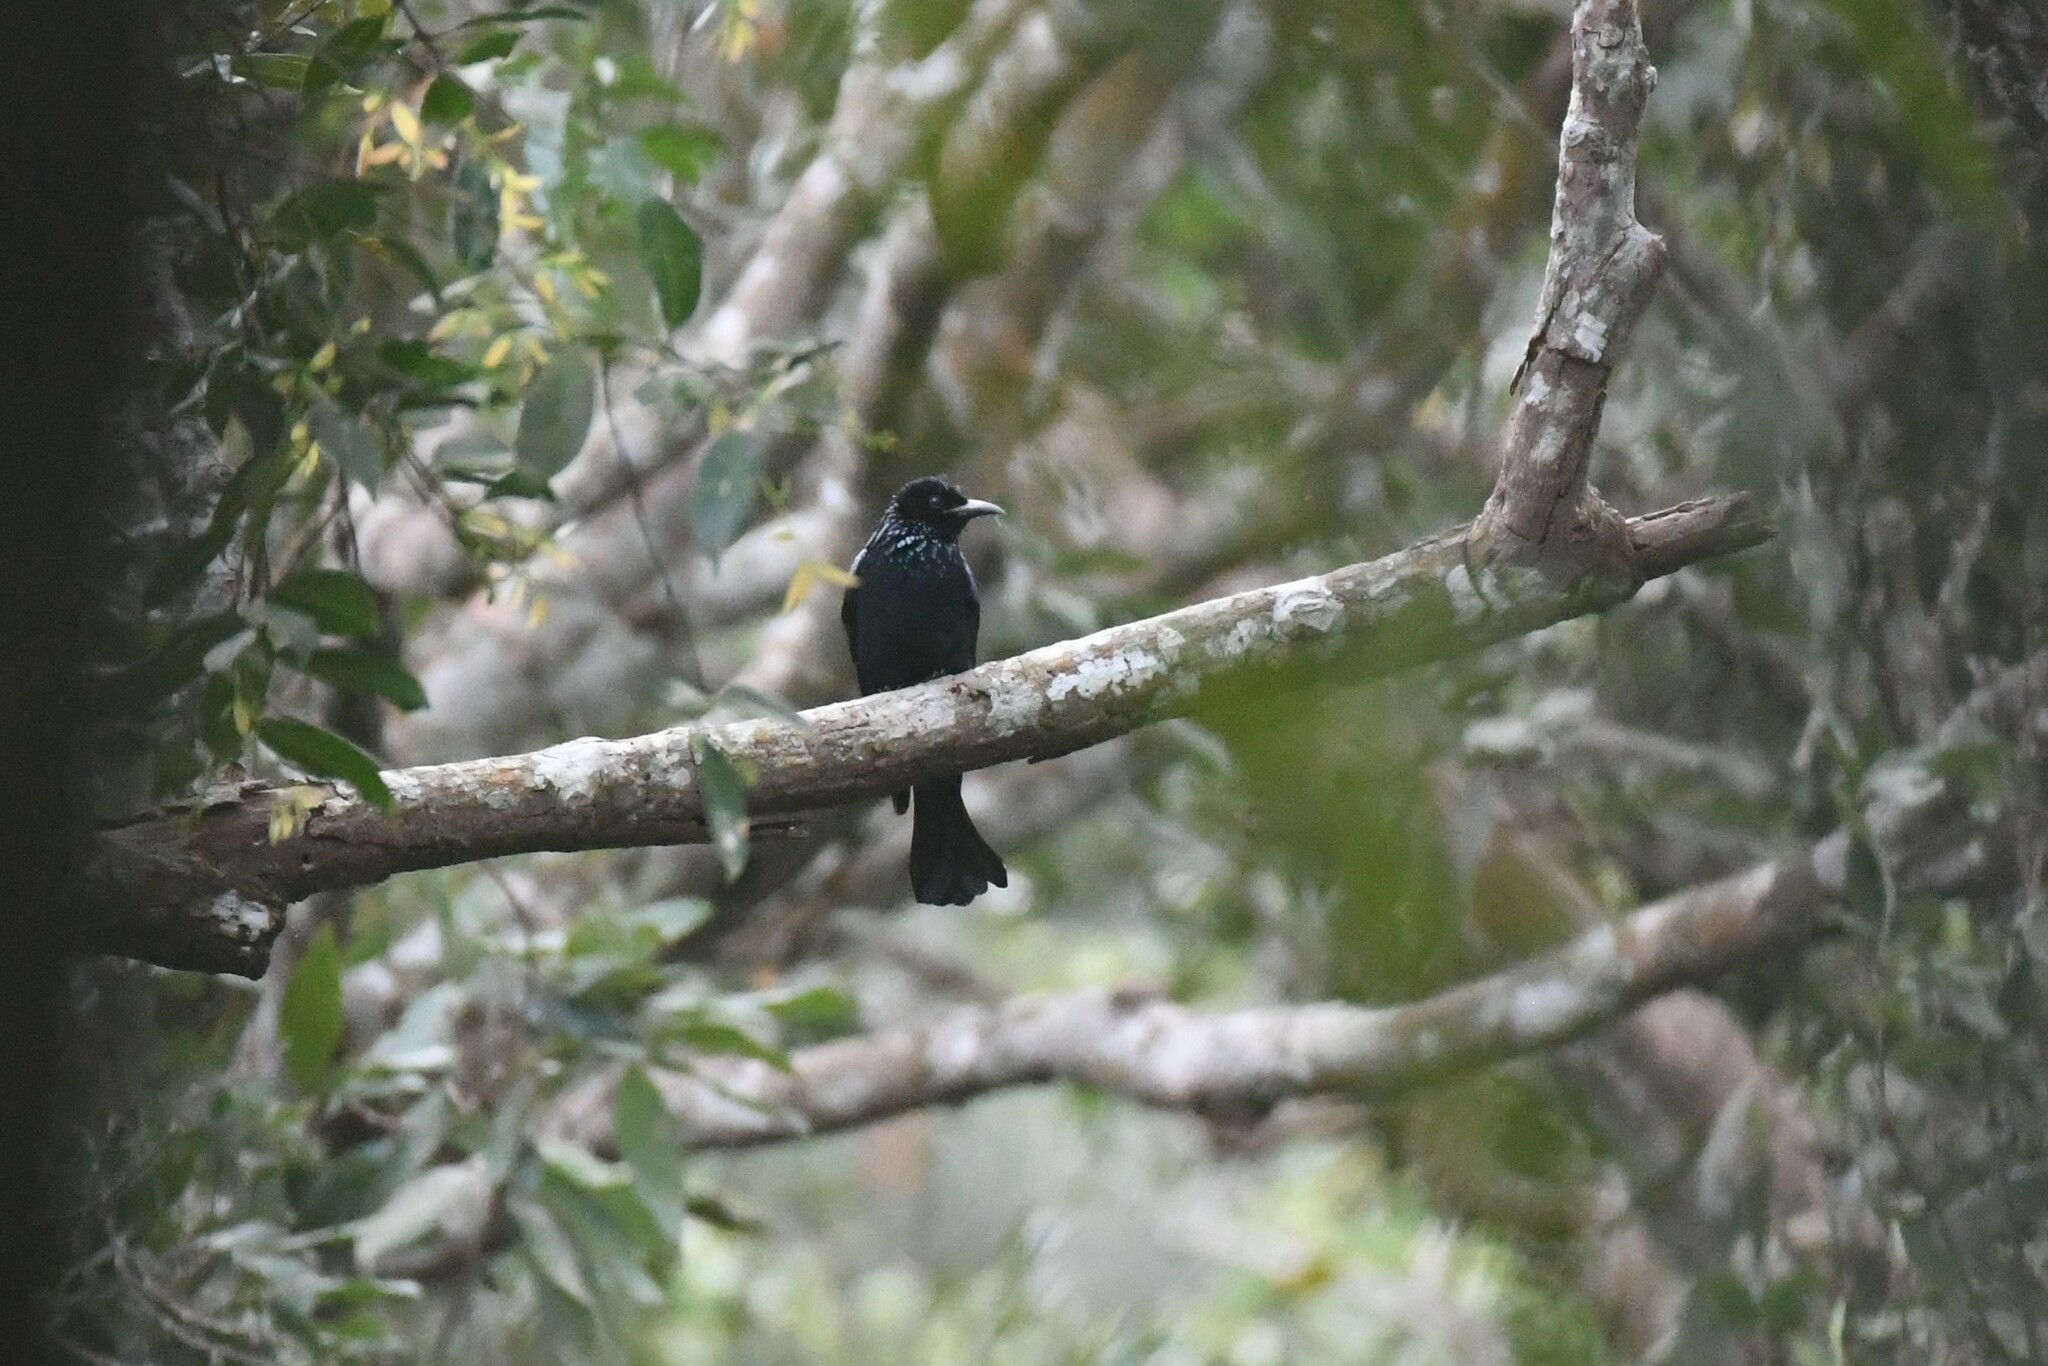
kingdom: Animalia
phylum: Chordata
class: Aves
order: Passeriformes
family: Dicruridae
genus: Dicrurus
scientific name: Dicrurus hottentottus
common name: Hair-crested drongo
